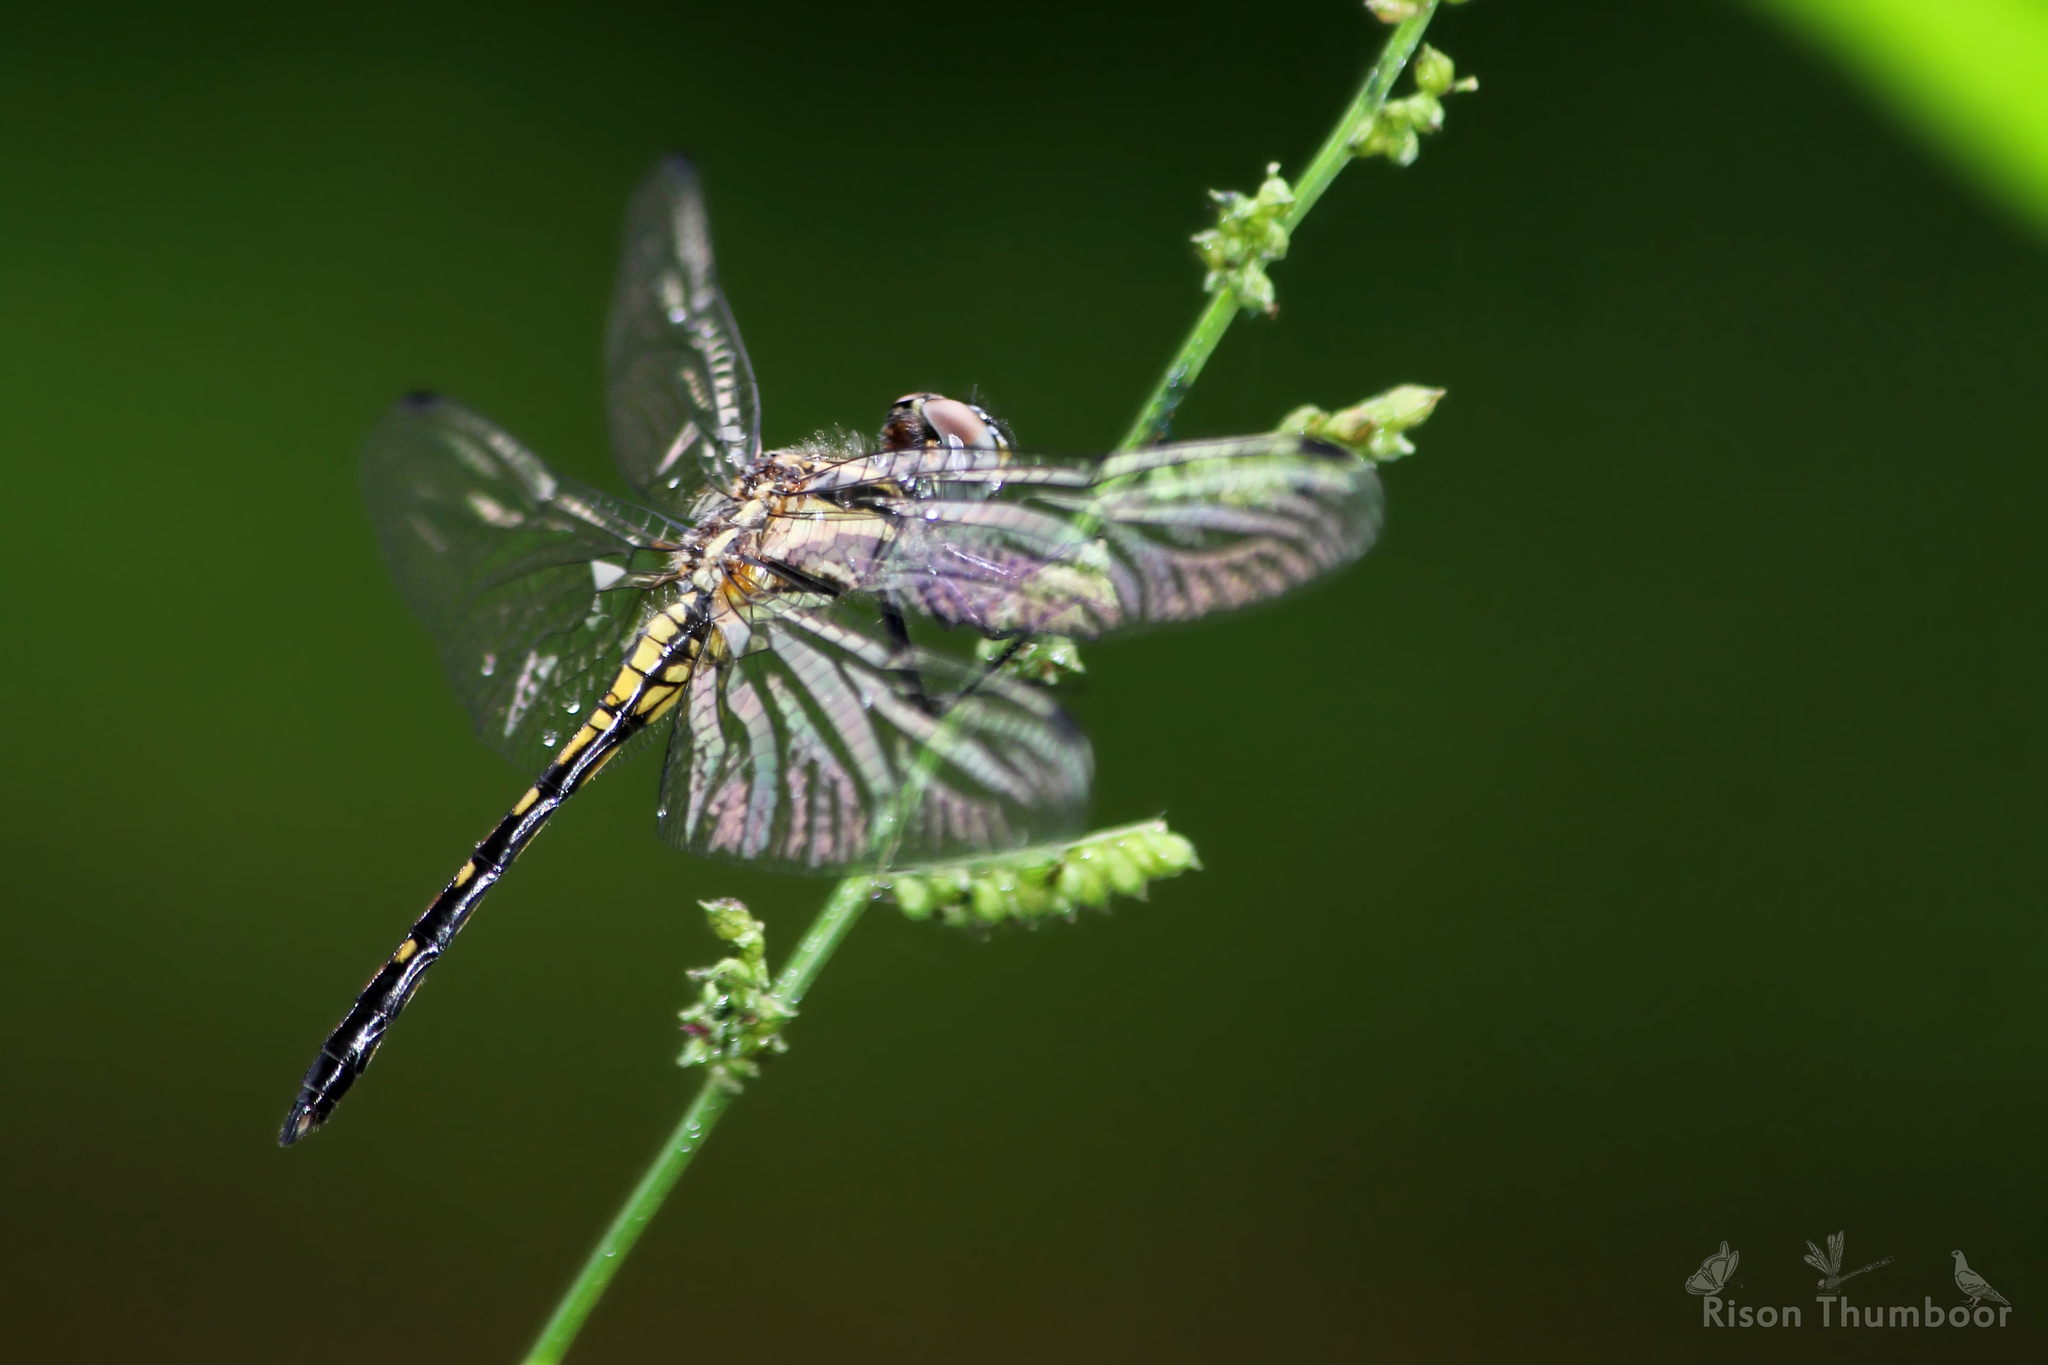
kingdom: Animalia
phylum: Arthropoda
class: Insecta
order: Odonata
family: Libellulidae
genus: Trithemis
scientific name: Trithemis festiva
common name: Indigo dropwing
